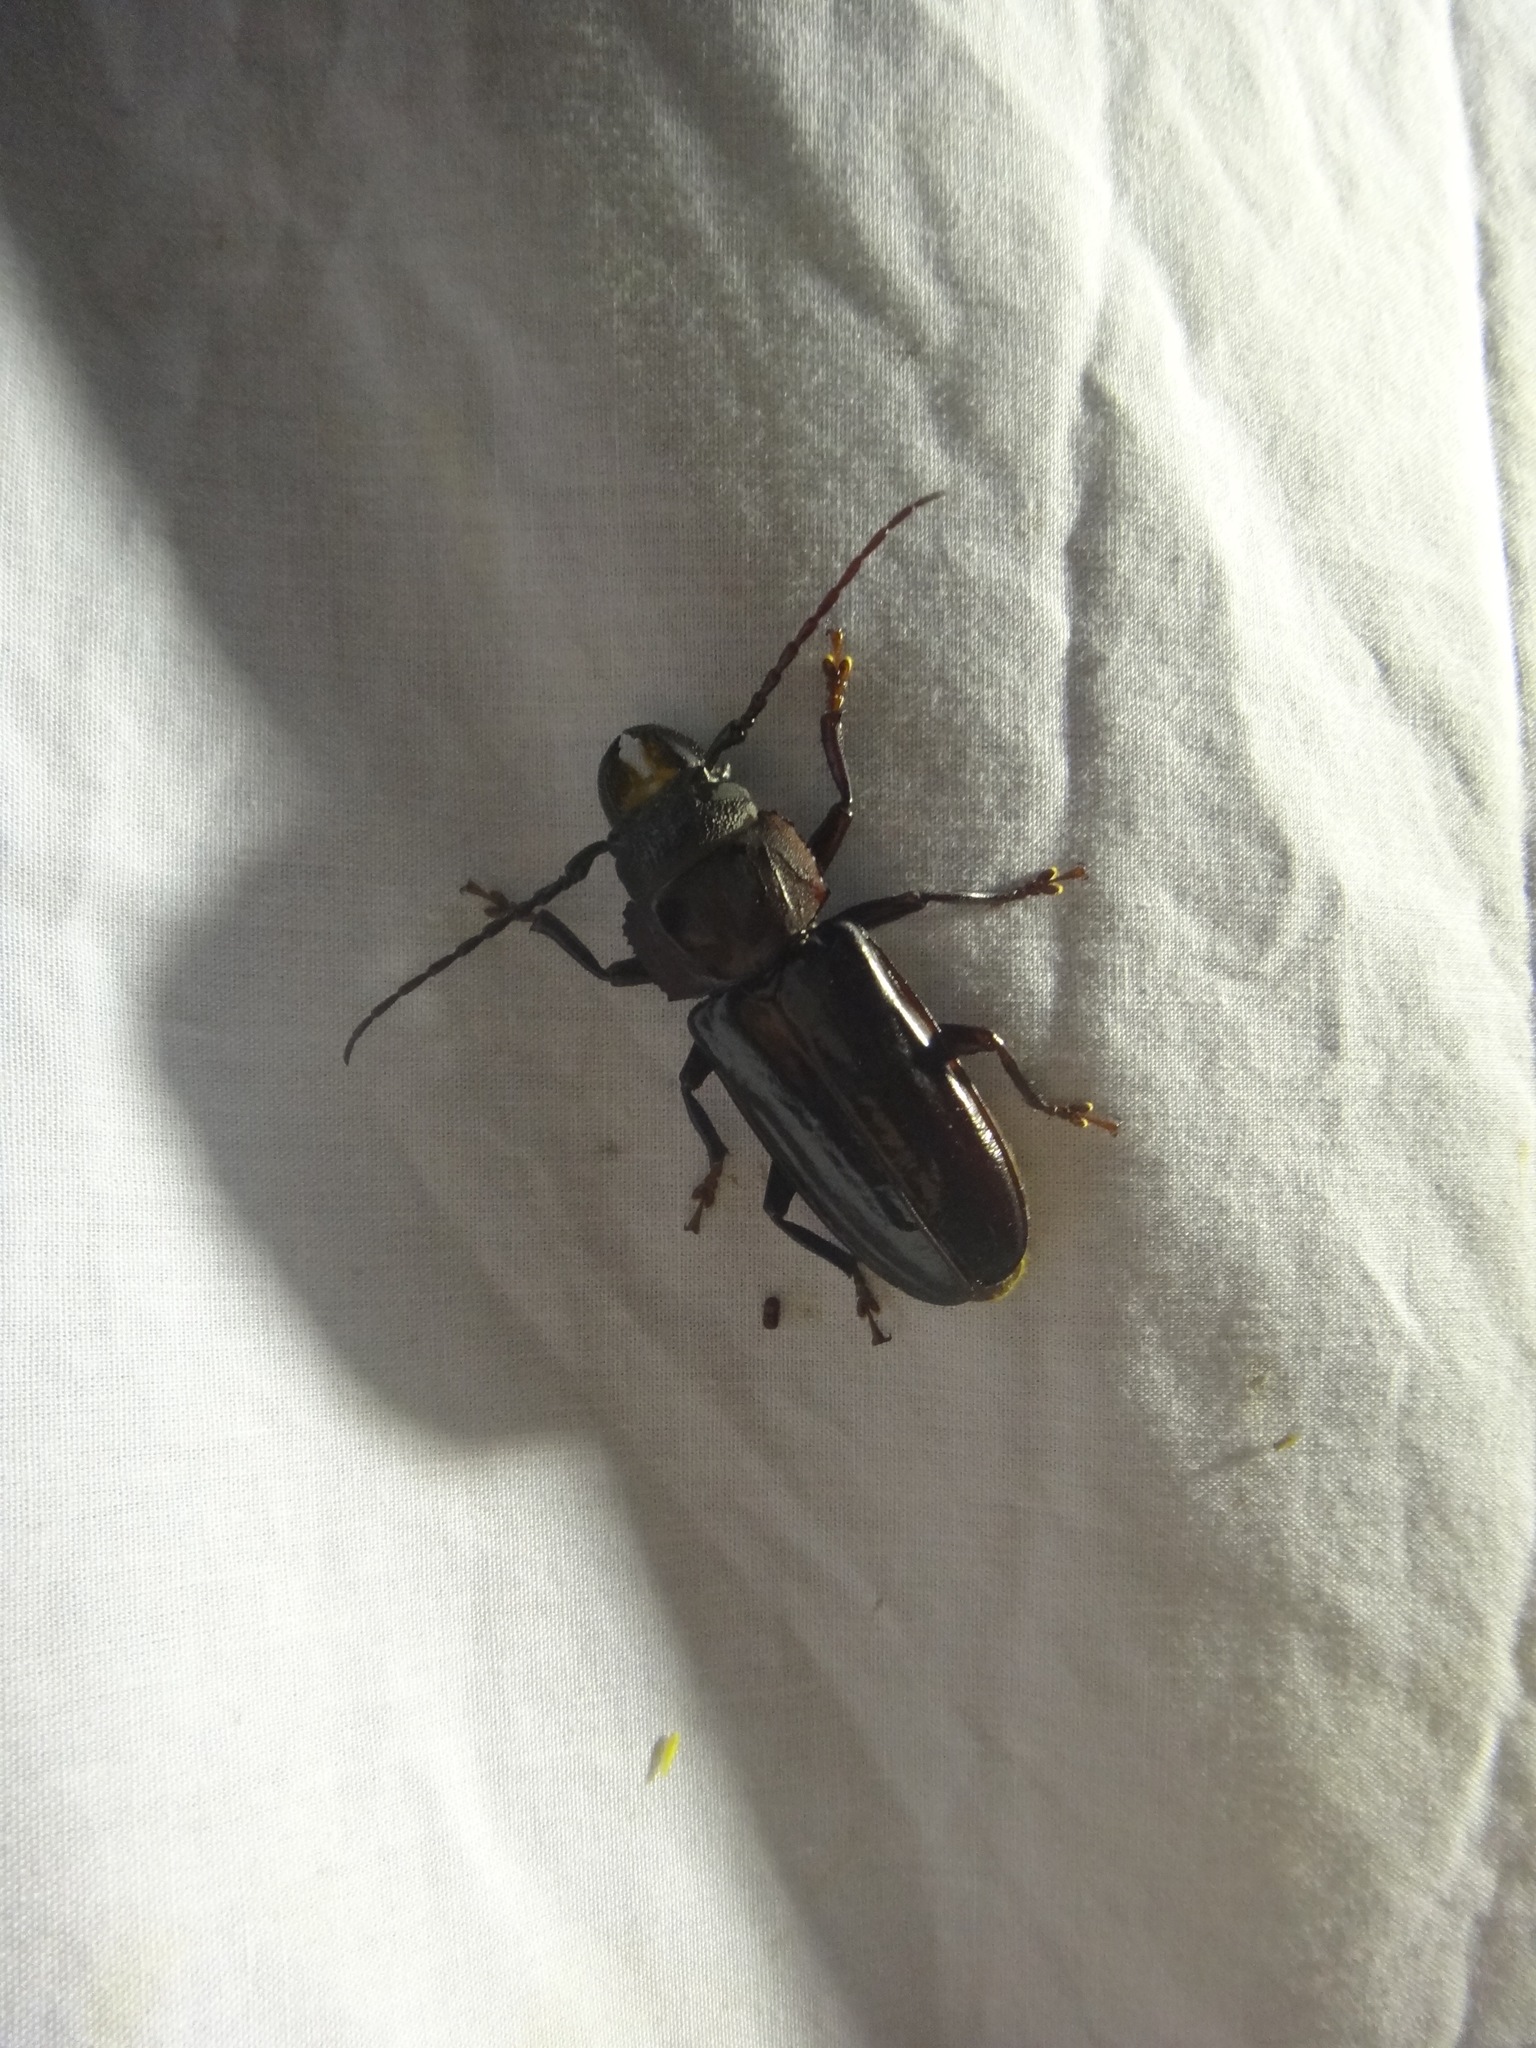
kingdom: Animalia
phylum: Arthropoda
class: Insecta
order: Coleoptera
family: Cerambycidae
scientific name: Cerambycidae
